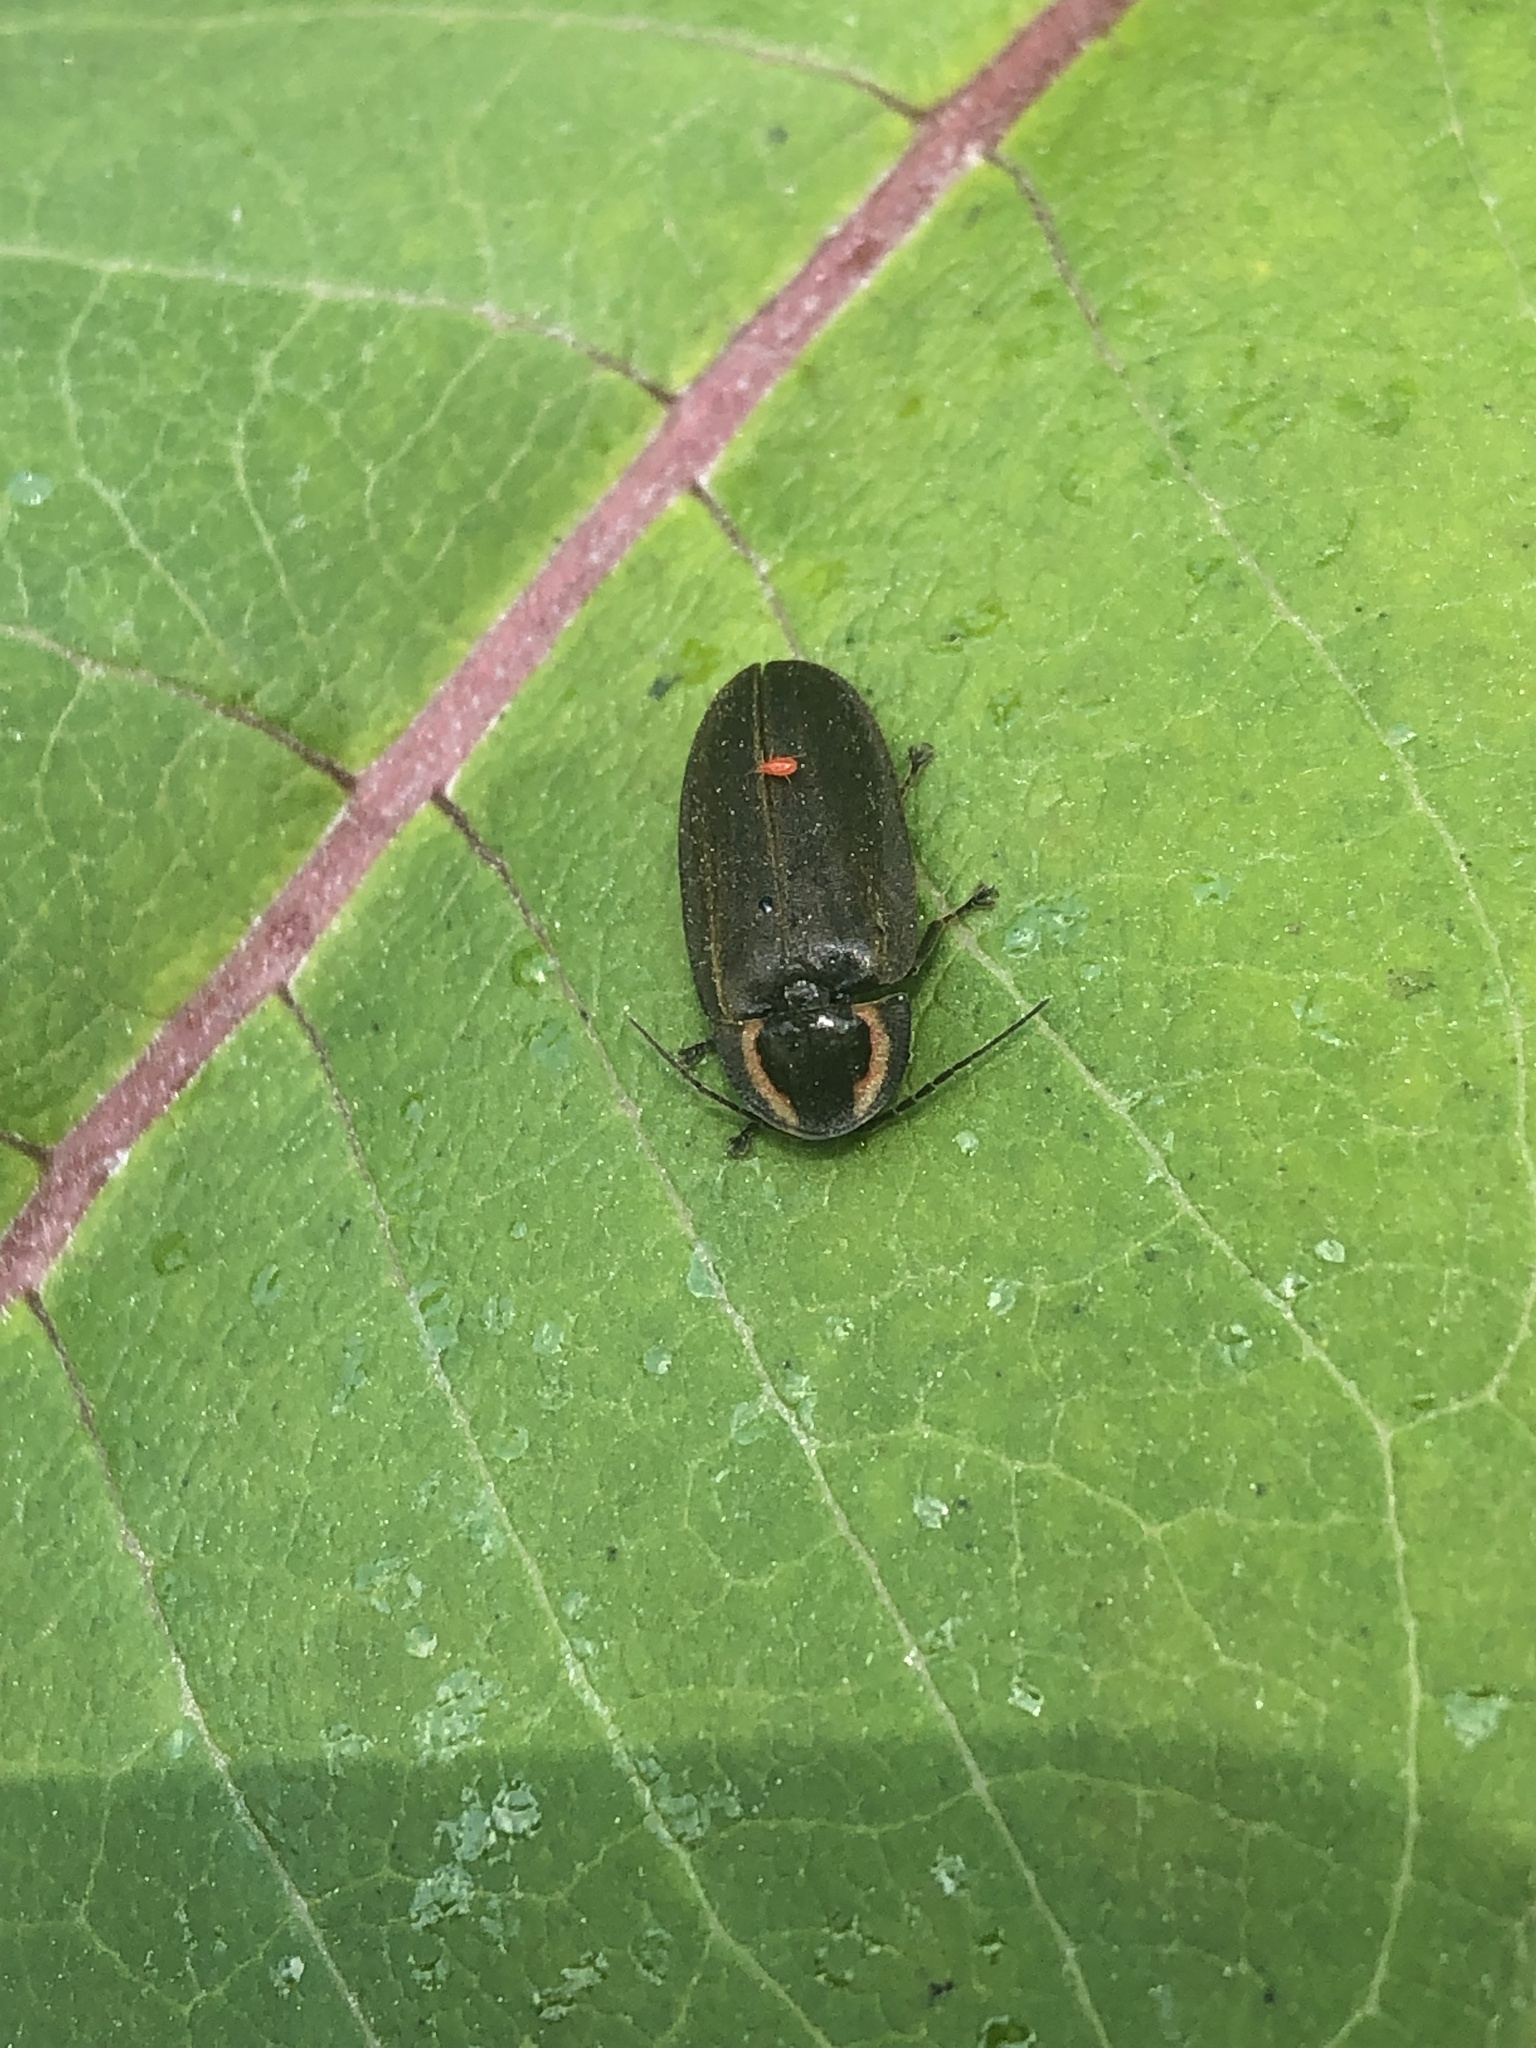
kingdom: Animalia
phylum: Arthropoda
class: Insecta
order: Coleoptera
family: Lampyridae
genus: Photinus
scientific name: Photinus corrusca
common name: Winter firefly
